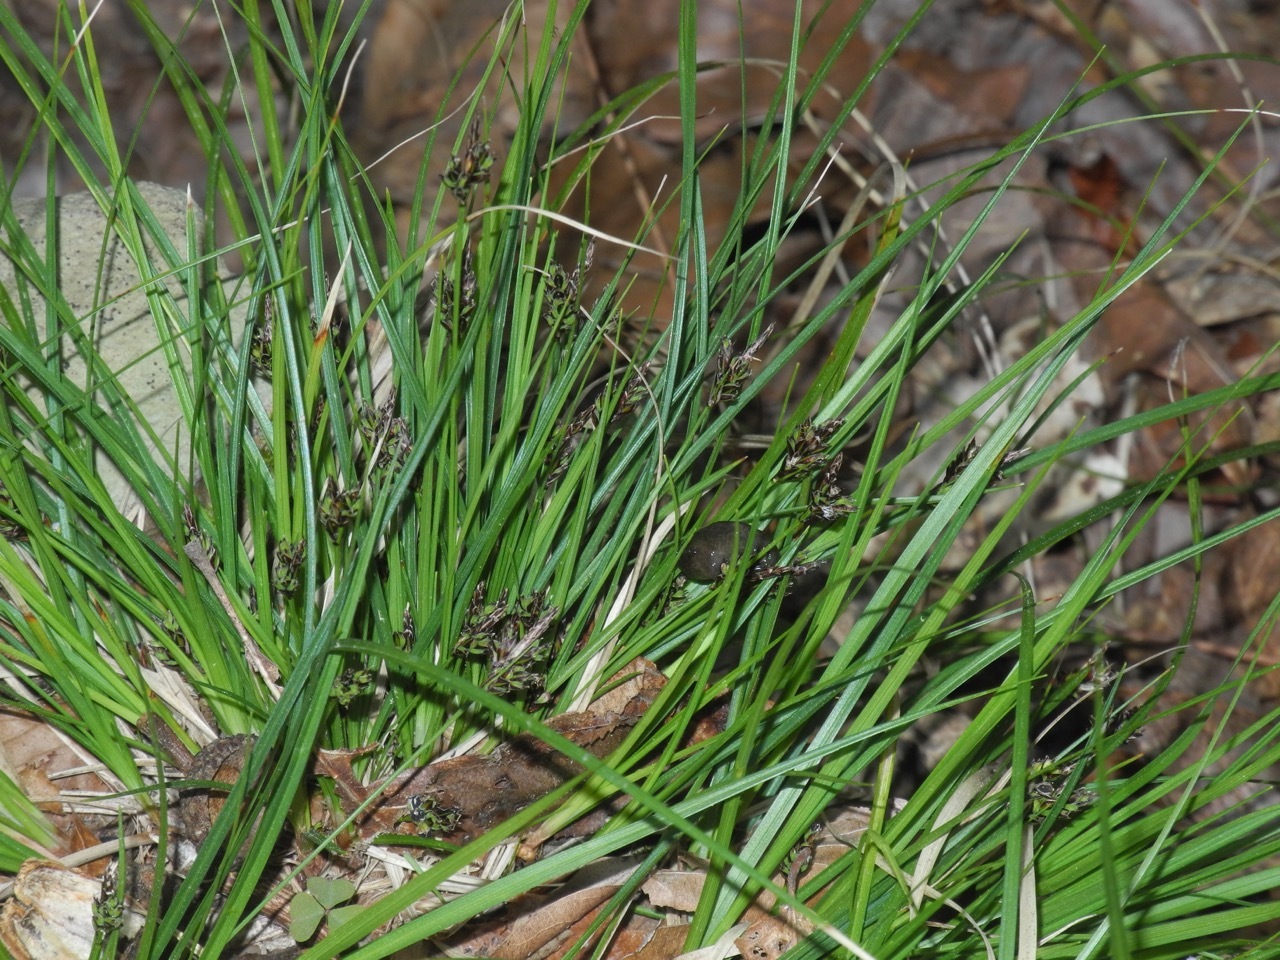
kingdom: Plantae
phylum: Tracheophyta
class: Liliopsida
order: Poales
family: Cyperaceae
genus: Carex
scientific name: Carex nigromarginata
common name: Black-edged sedge
